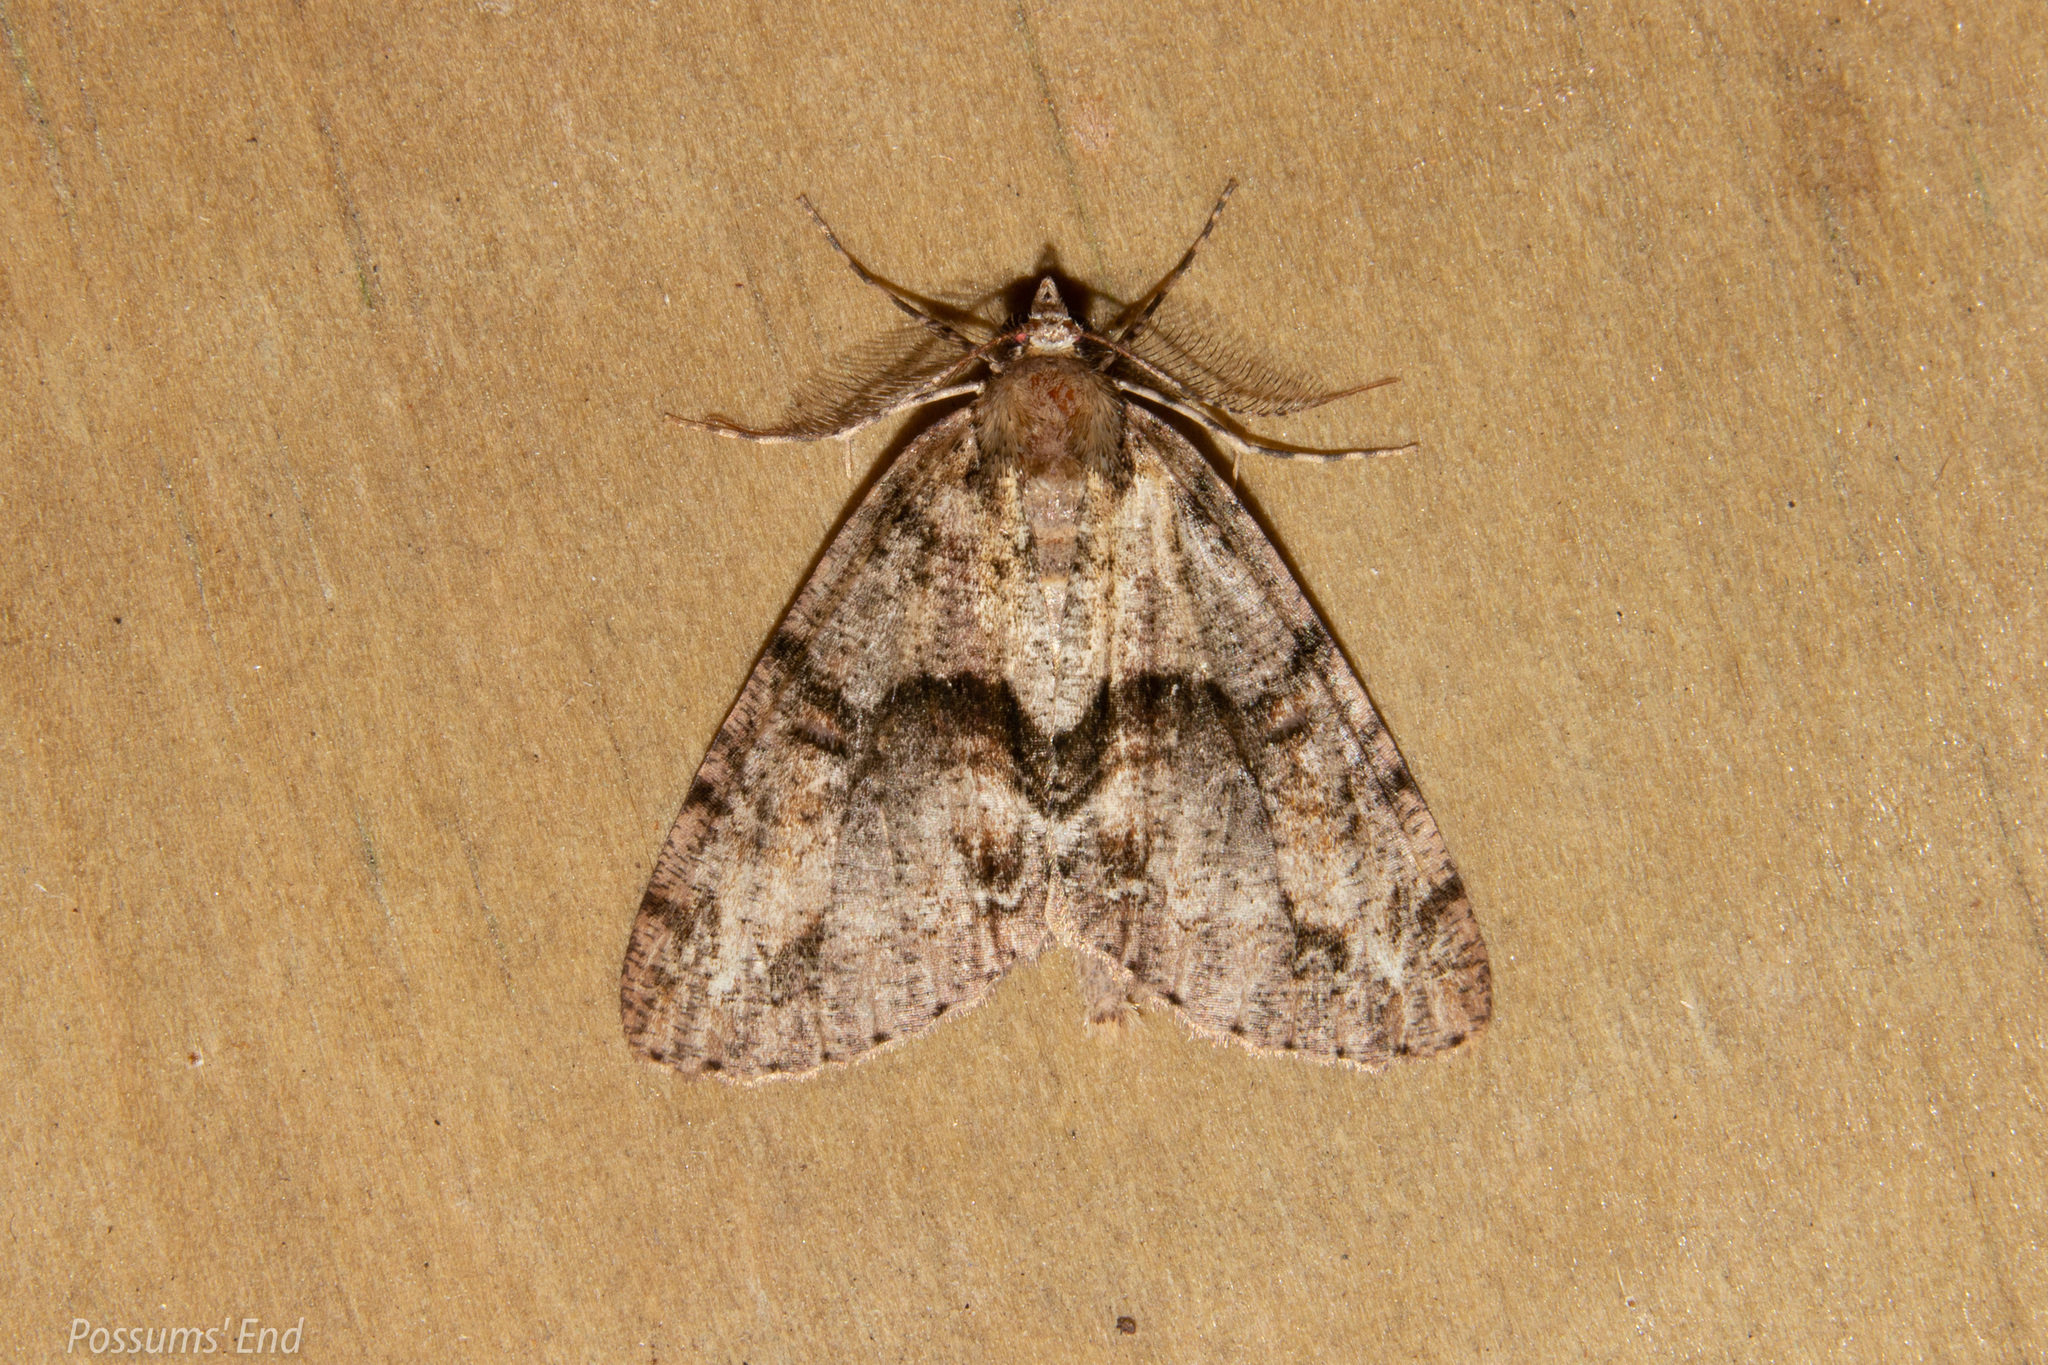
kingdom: Animalia
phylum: Arthropoda
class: Insecta
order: Lepidoptera
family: Geometridae
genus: Pseudocoremia
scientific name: Pseudocoremia suavis
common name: Common forest looper
